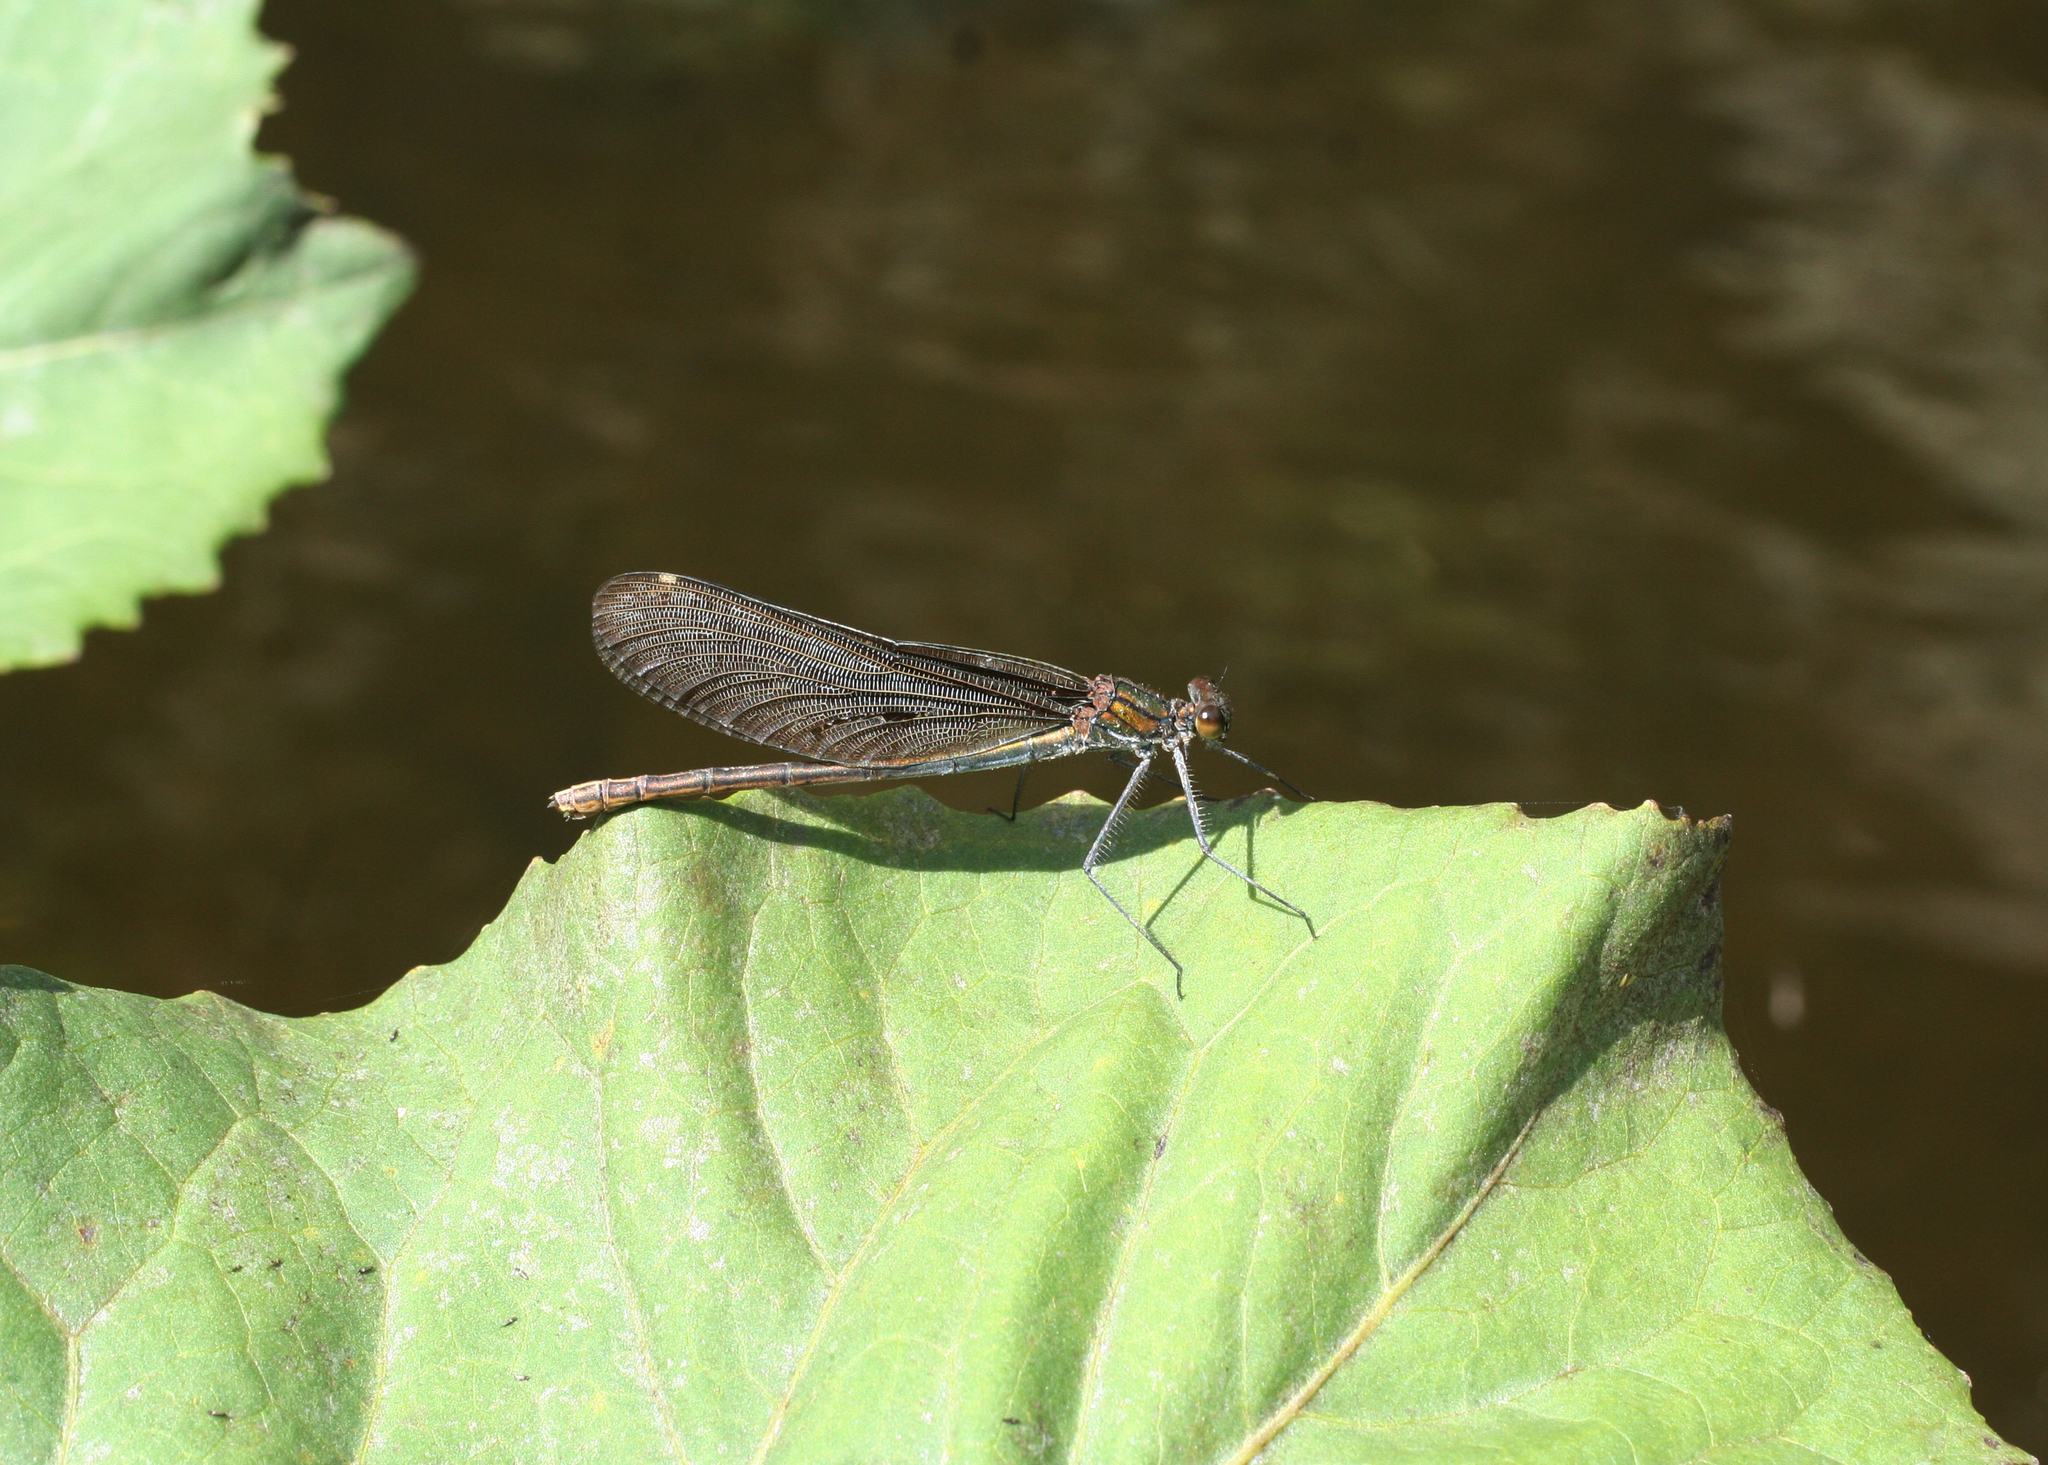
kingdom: Animalia
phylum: Arthropoda
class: Insecta
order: Odonata
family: Calopterygidae
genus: Calopteryx
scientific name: Calopteryx virgo
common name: Beautiful demoiselle
